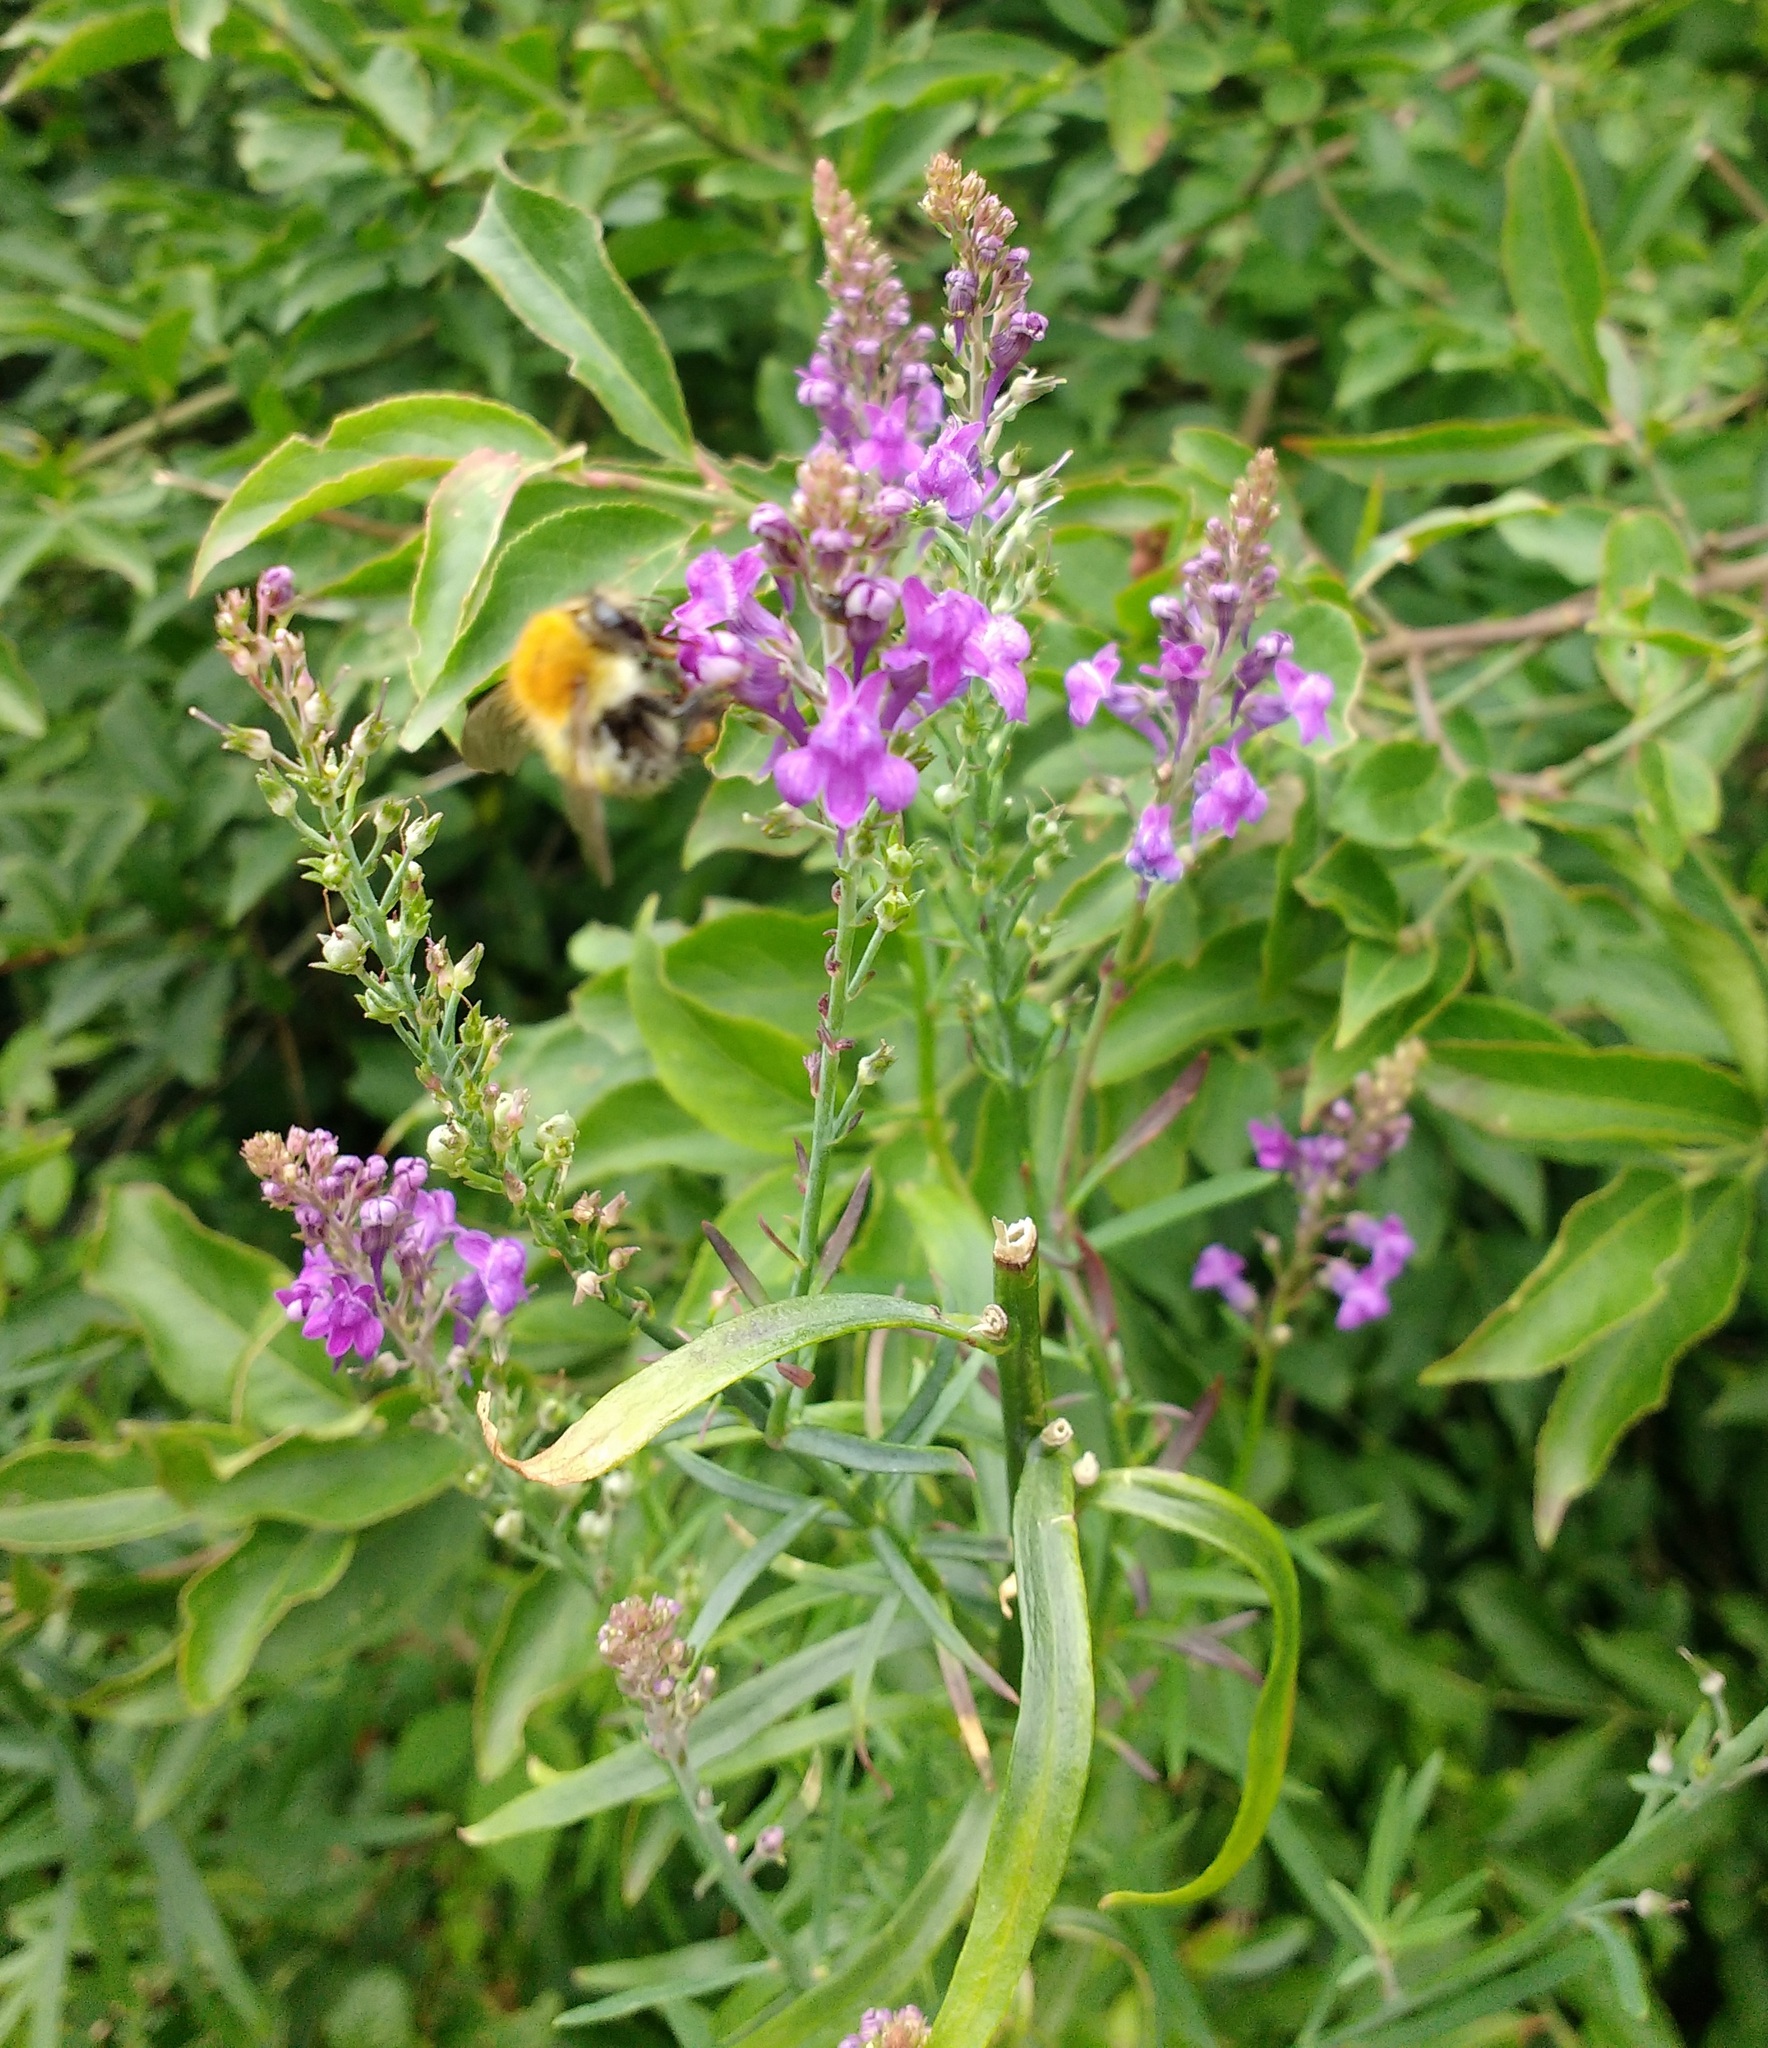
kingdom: Plantae
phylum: Tracheophyta
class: Magnoliopsida
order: Lamiales
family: Plantaginaceae
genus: Linaria
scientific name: Linaria purpurea
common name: Purple toadflax
